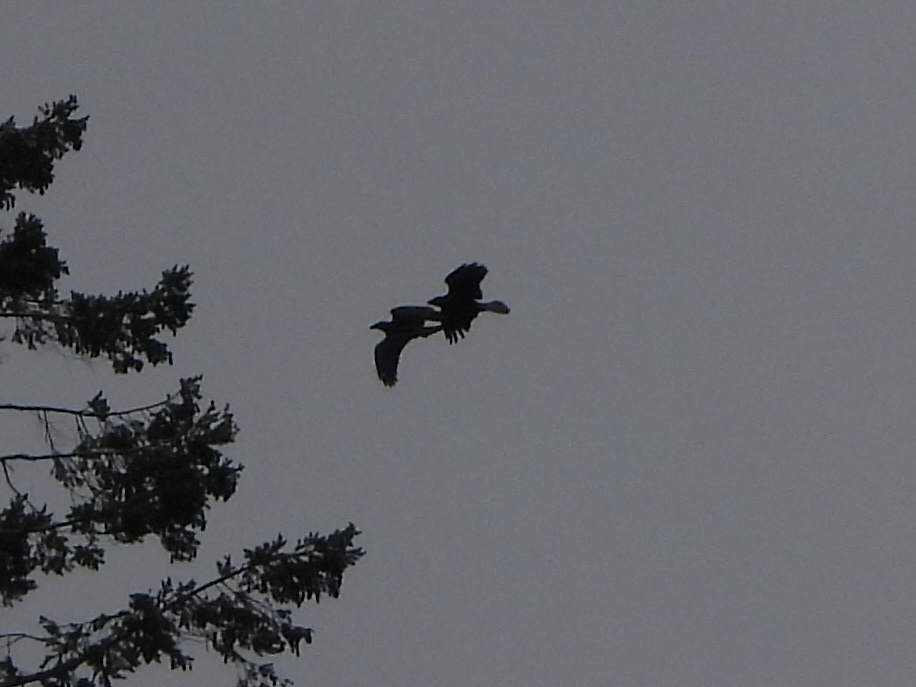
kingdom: Animalia
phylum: Chordata
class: Aves
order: Passeriformes
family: Corvidae
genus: Corvus
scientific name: Corvus corax
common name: Common raven
